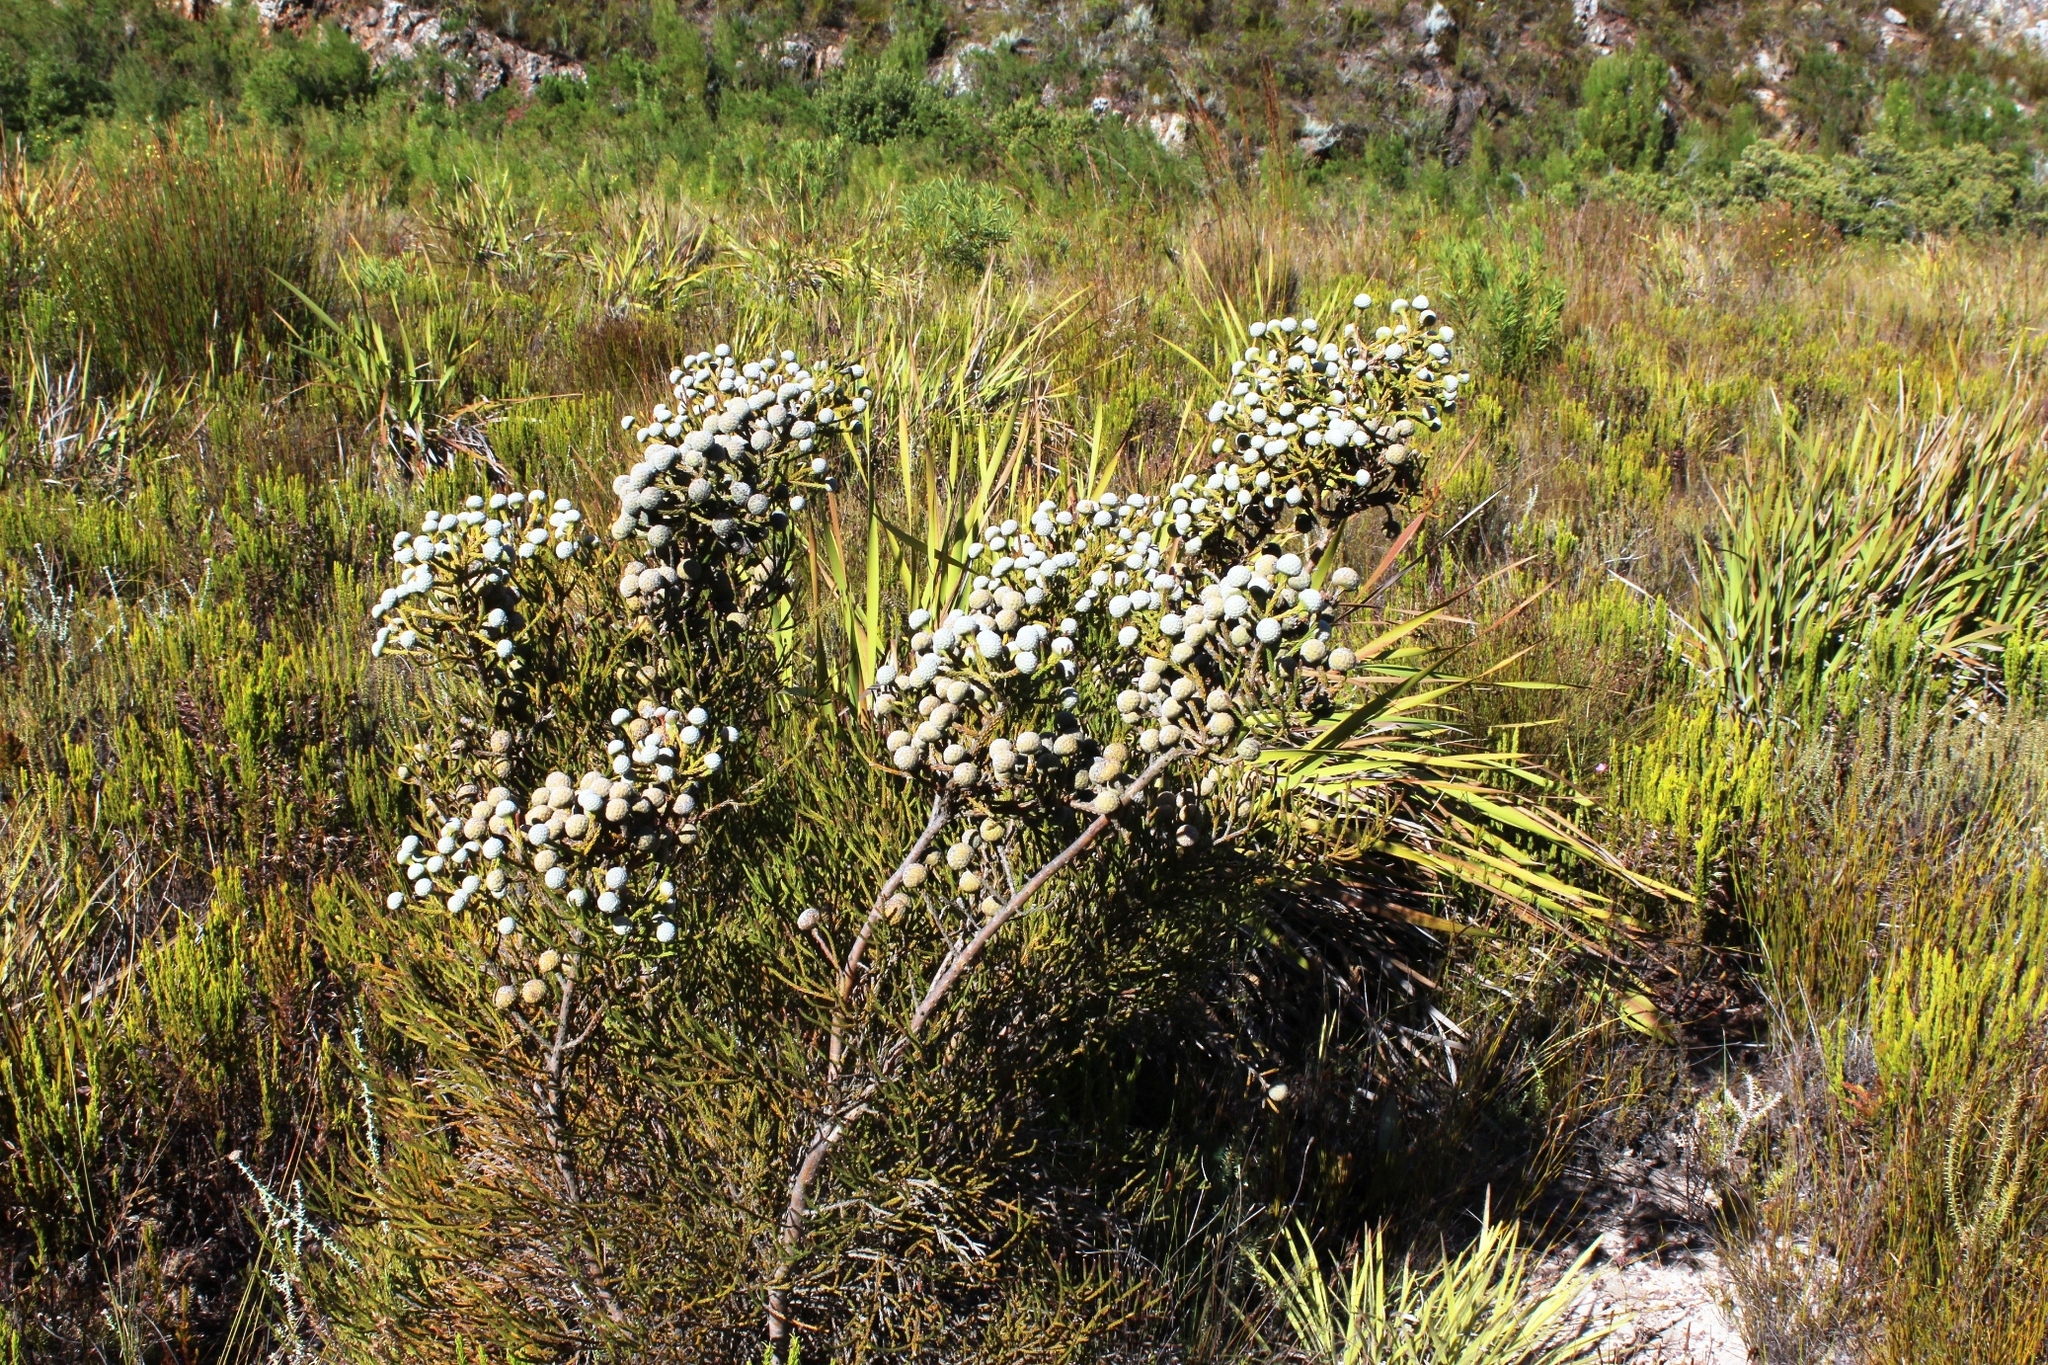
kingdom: Plantae
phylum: Tracheophyta
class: Magnoliopsida
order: Bruniales
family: Bruniaceae
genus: Brunia
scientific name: Brunia noduliflora
